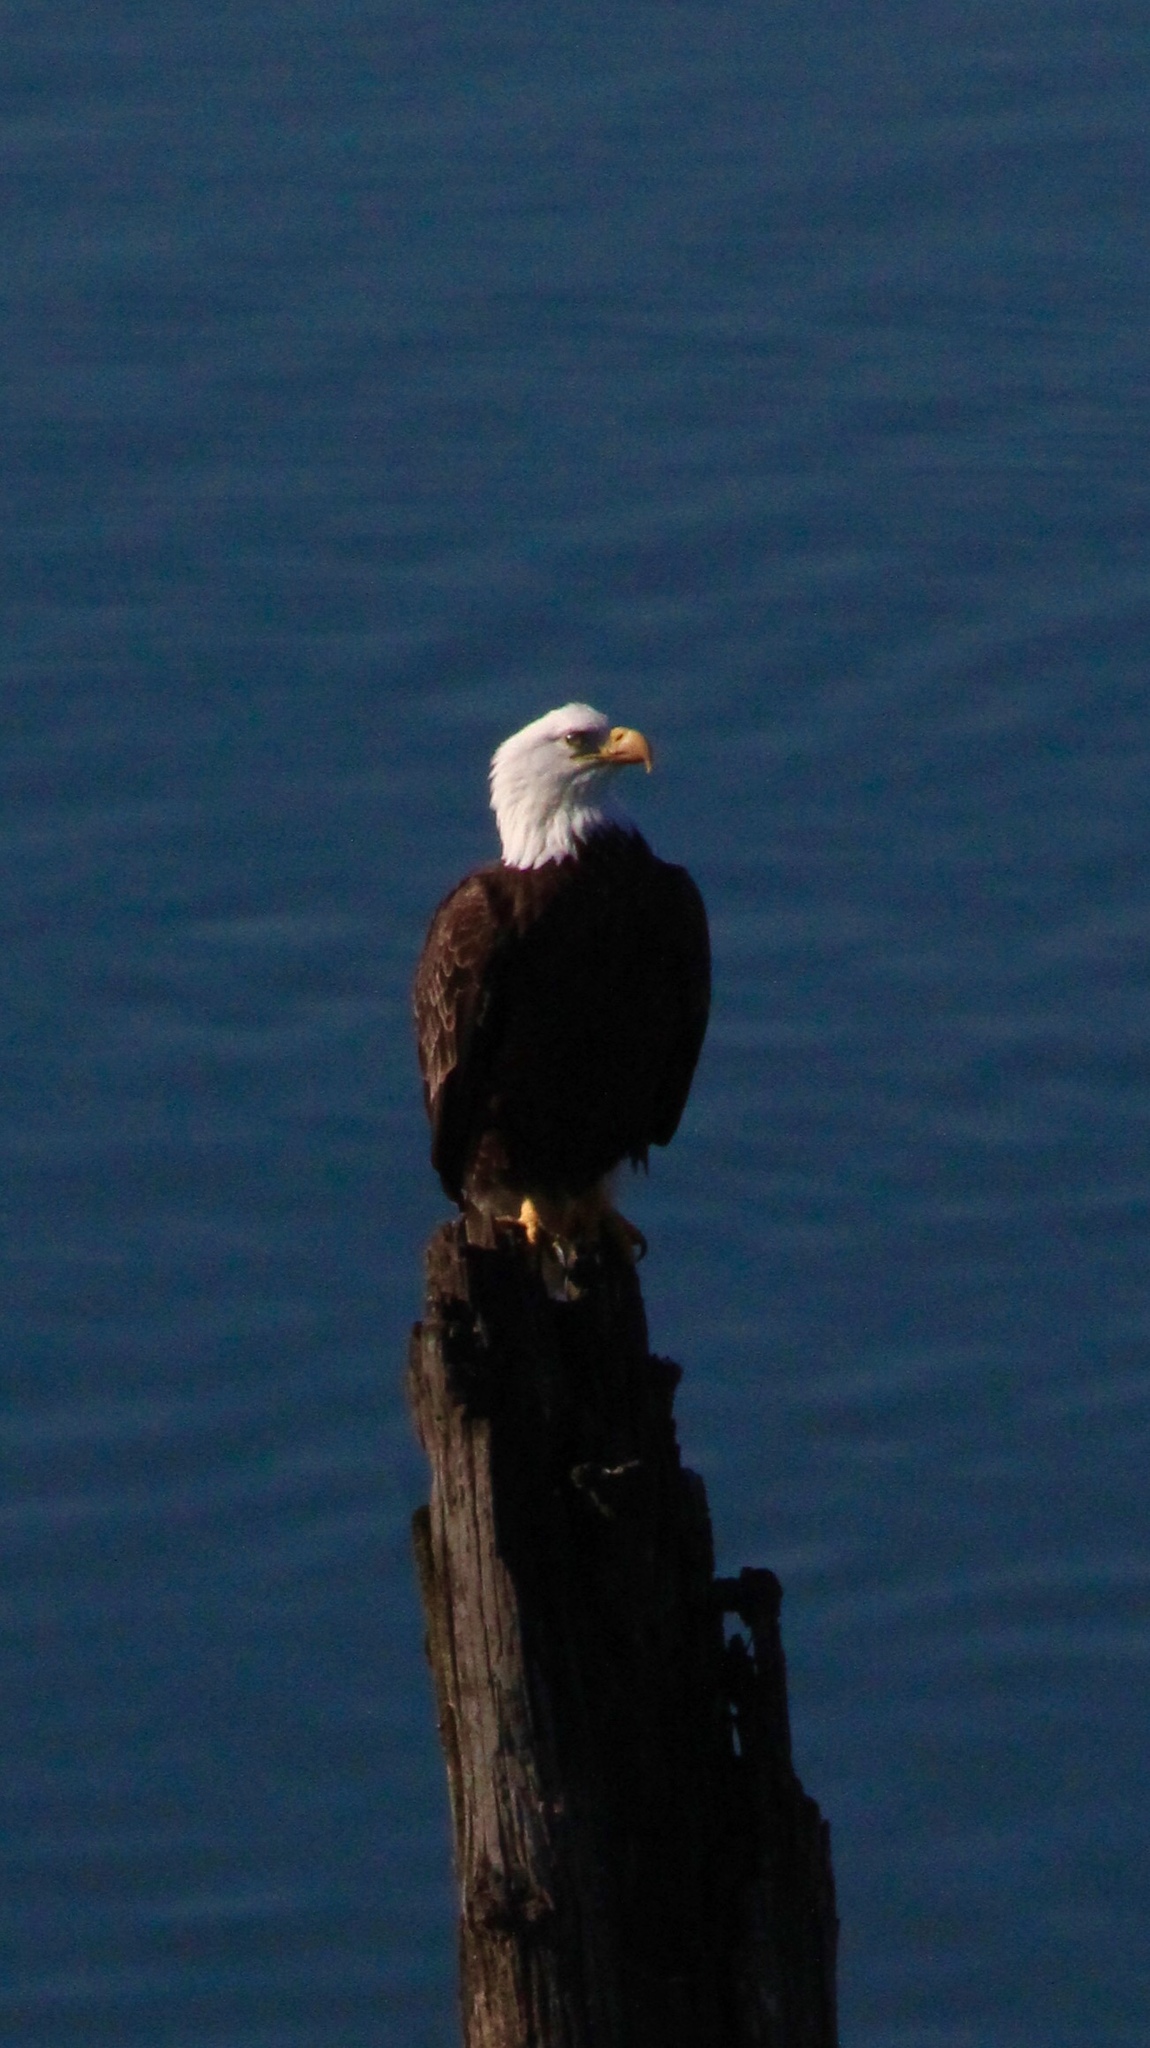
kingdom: Animalia
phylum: Chordata
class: Aves
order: Accipitriformes
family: Accipitridae
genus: Haliaeetus
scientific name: Haliaeetus leucocephalus
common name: Bald eagle
